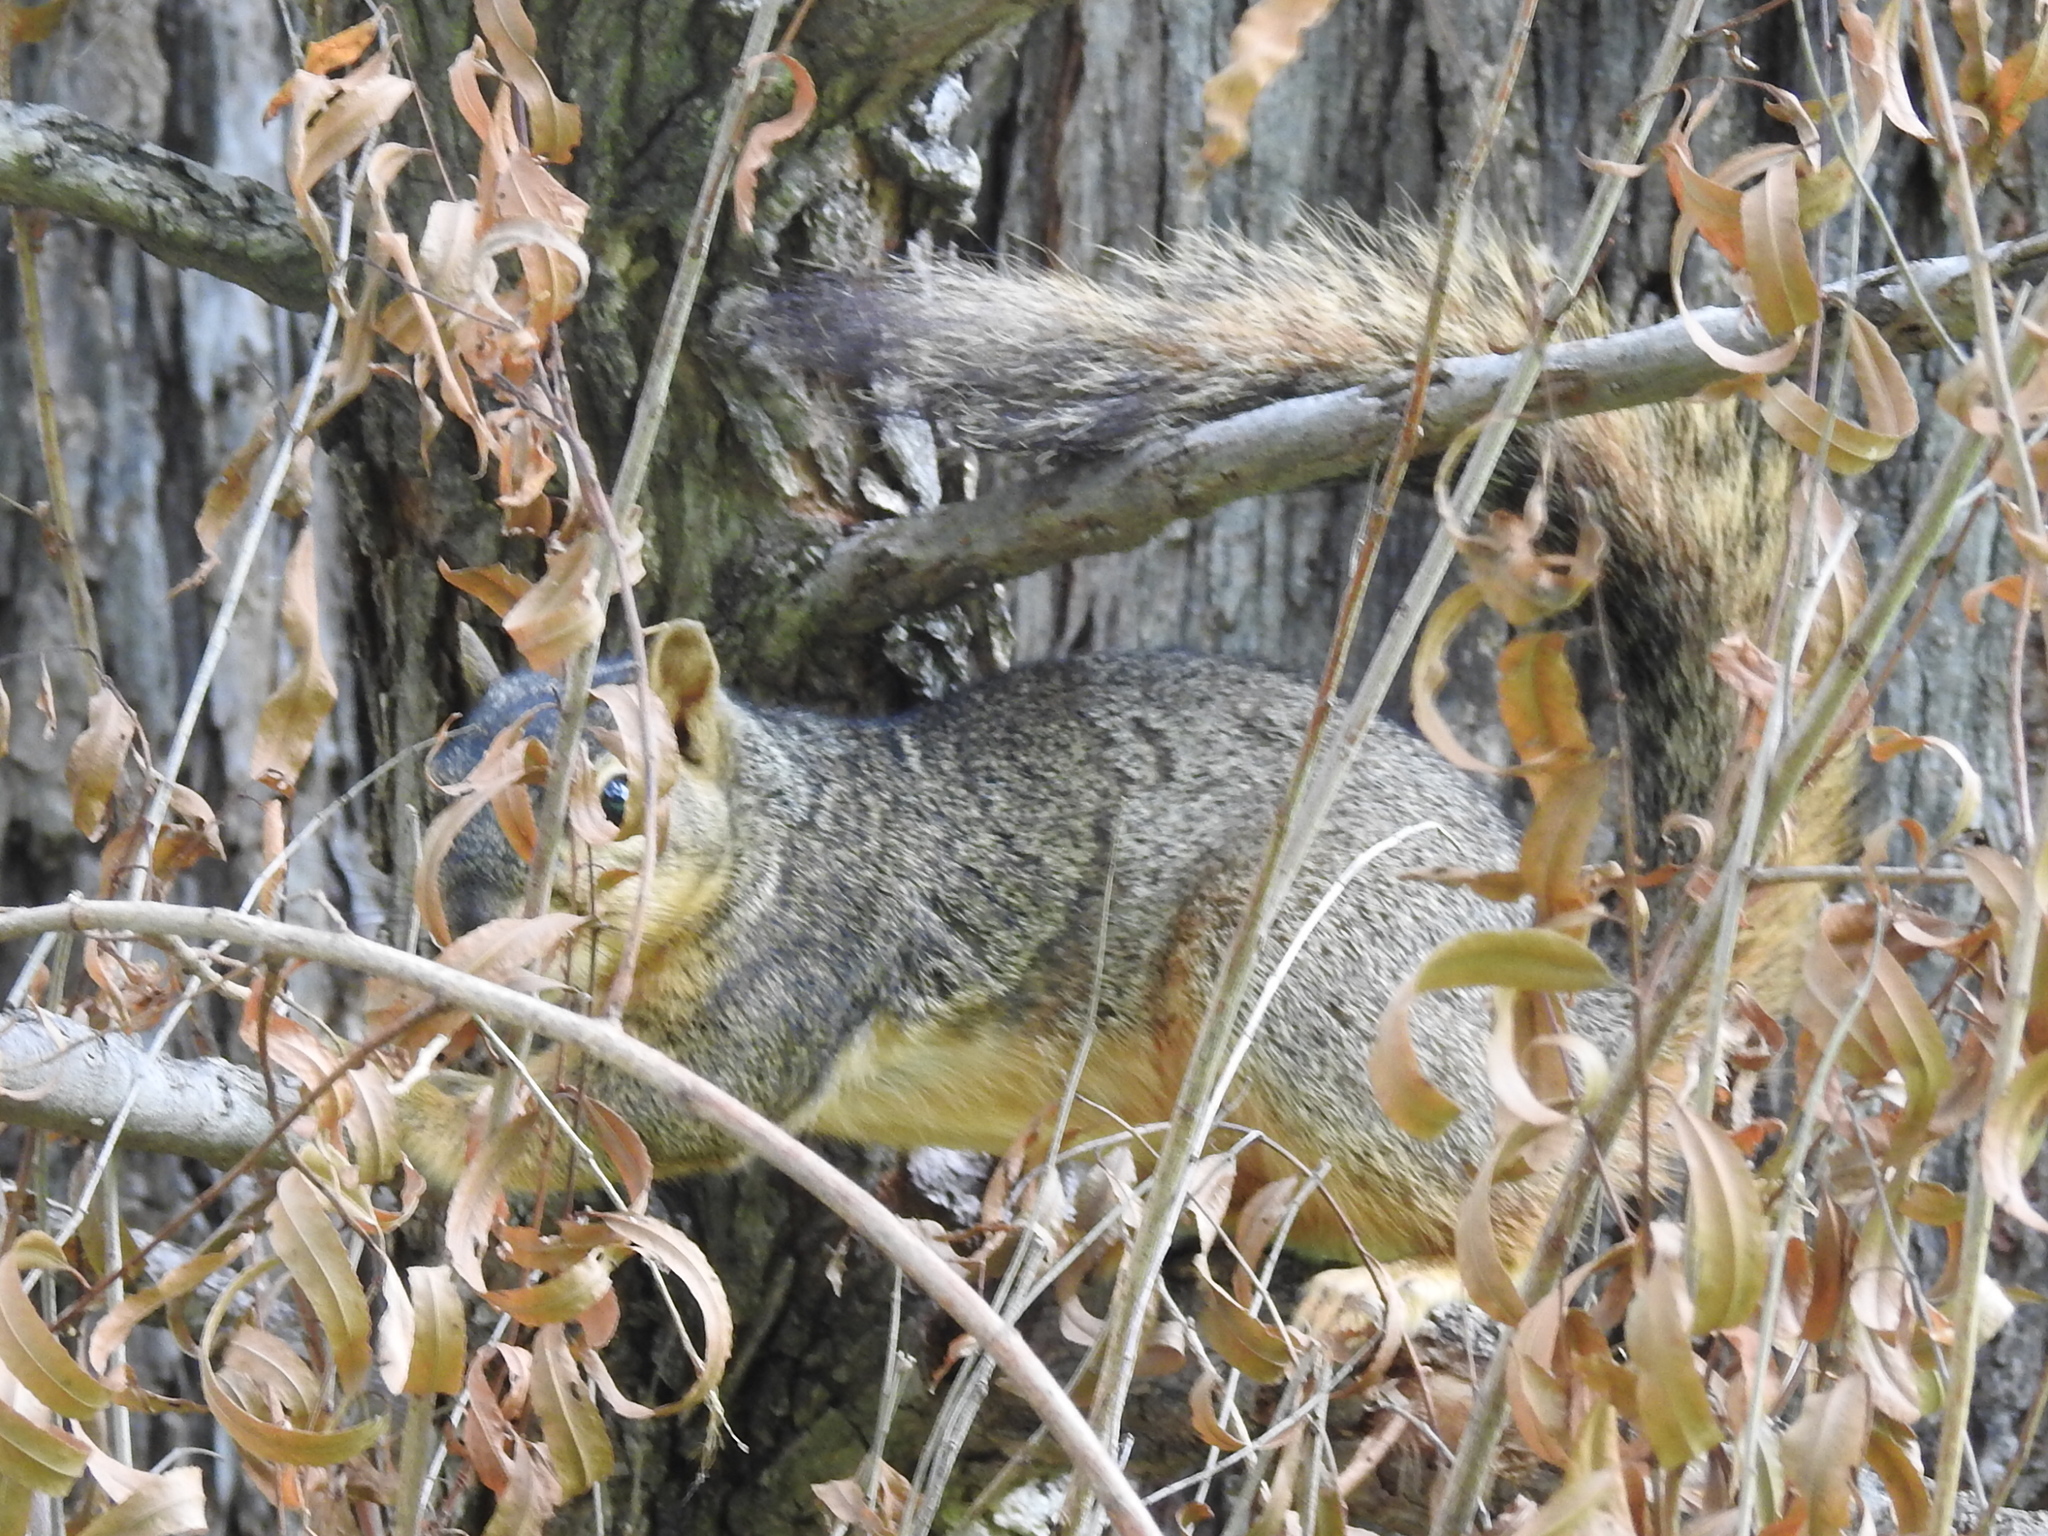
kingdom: Animalia
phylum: Chordata
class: Mammalia
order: Rodentia
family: Sciuridae
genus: Sciurus
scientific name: Sciurus niger
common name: Fox squirrel
